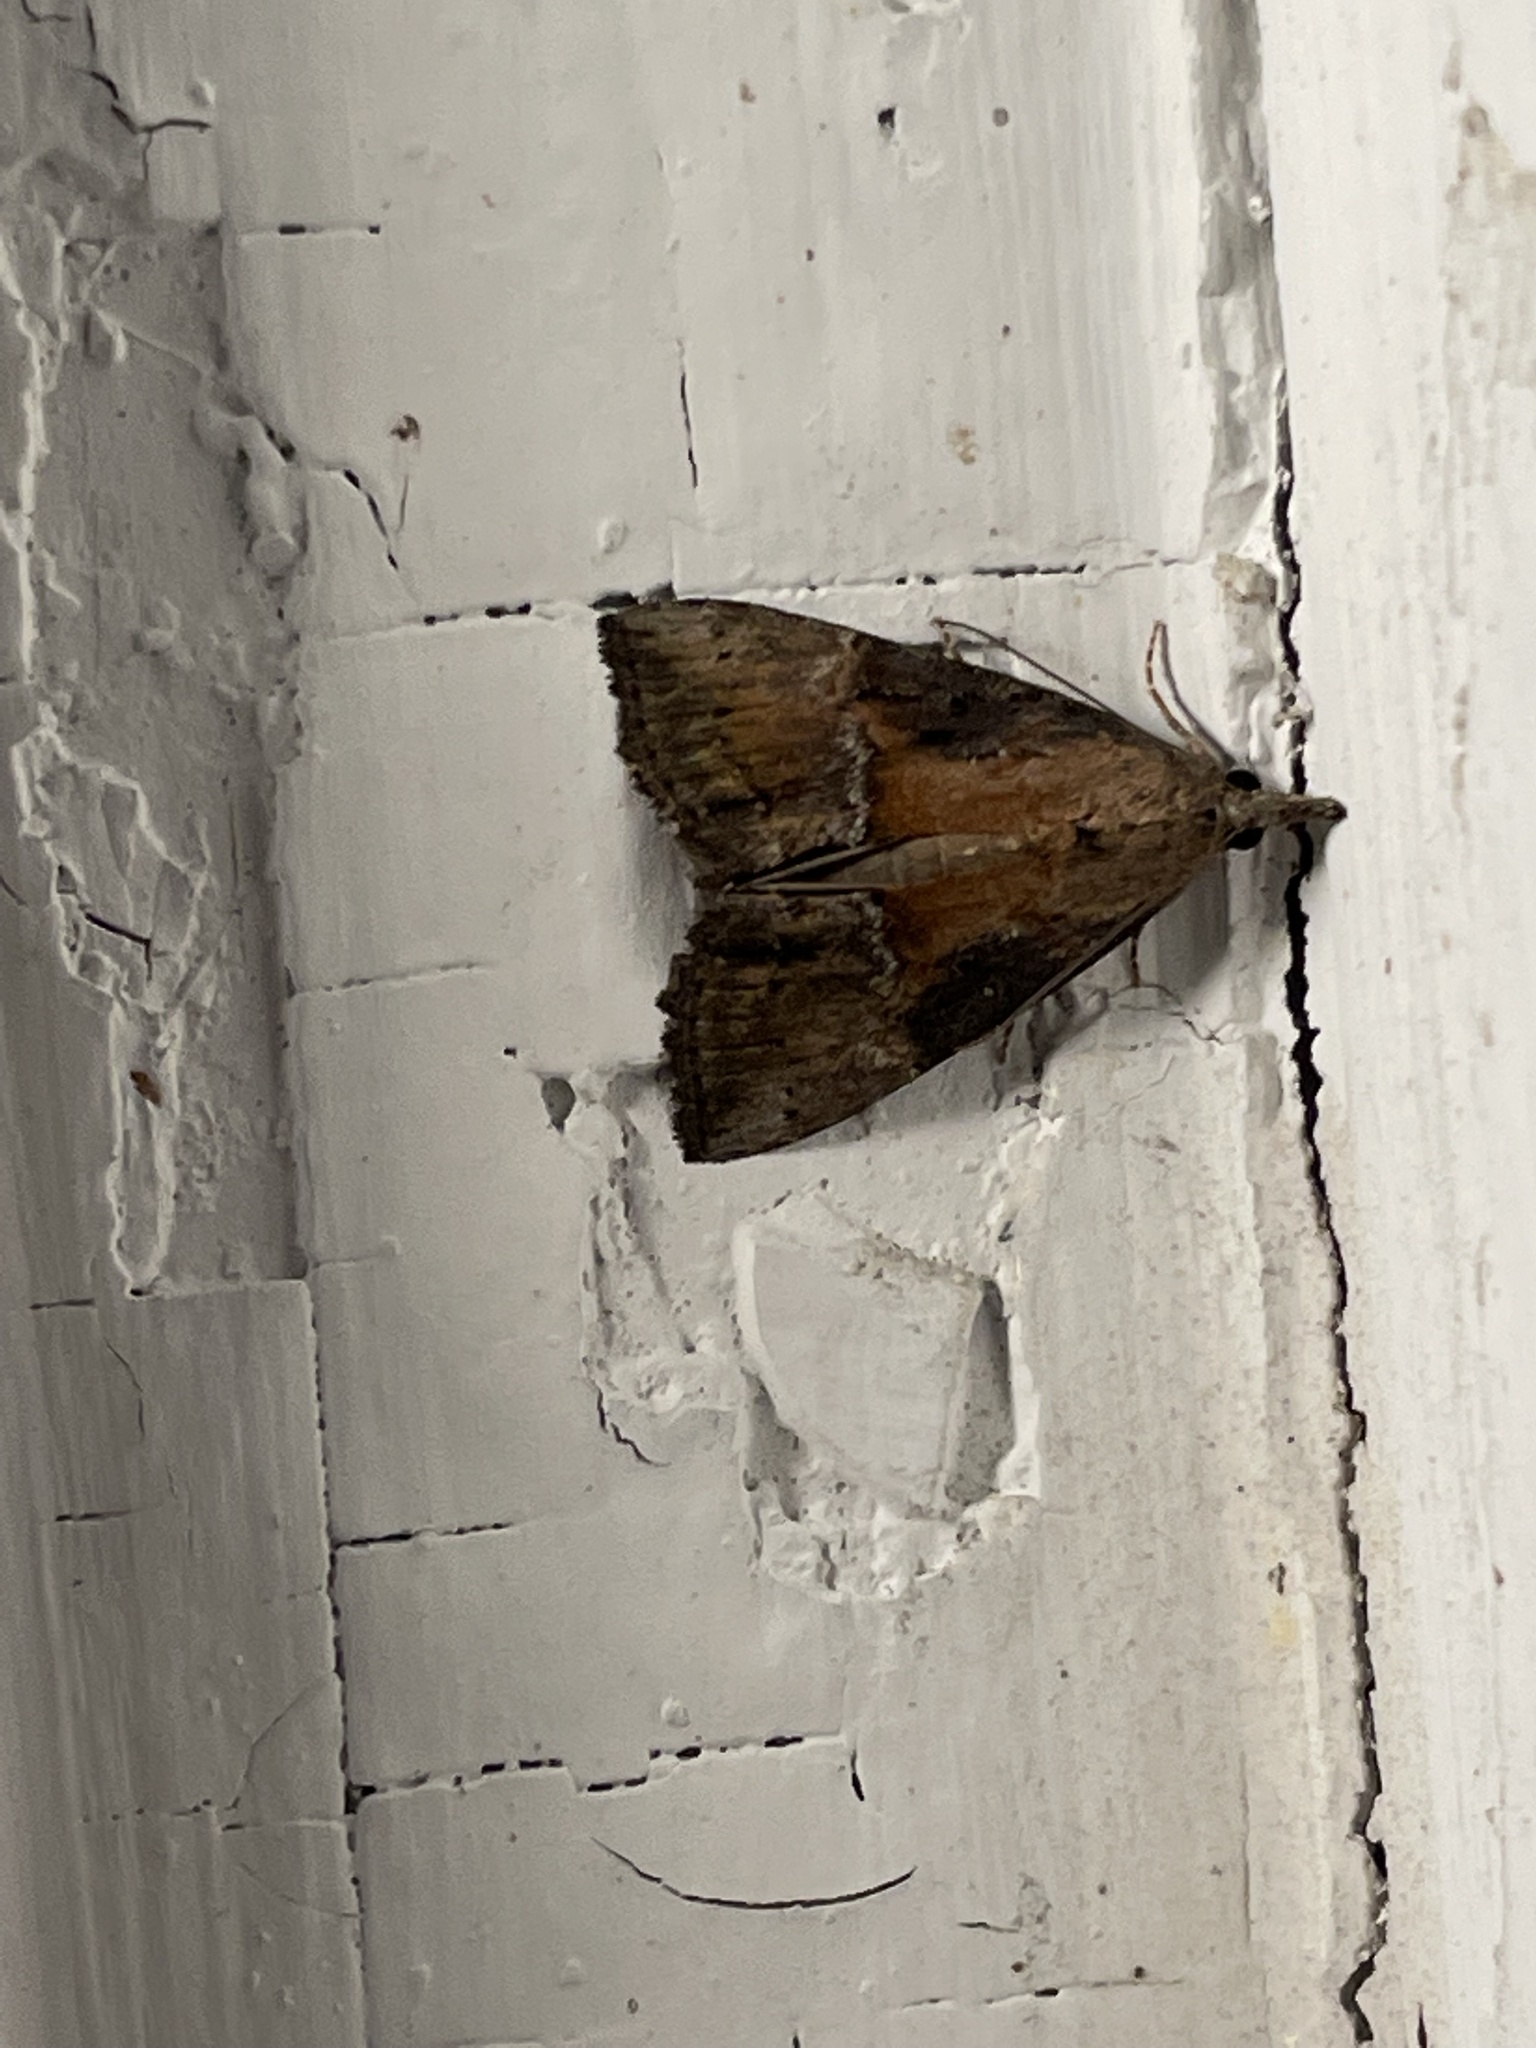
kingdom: Animalia
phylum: Arthropoda
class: Insecta
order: Lepidoptera
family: Erebidae
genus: Hypena
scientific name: Hypena scabra
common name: Green cloverworm
